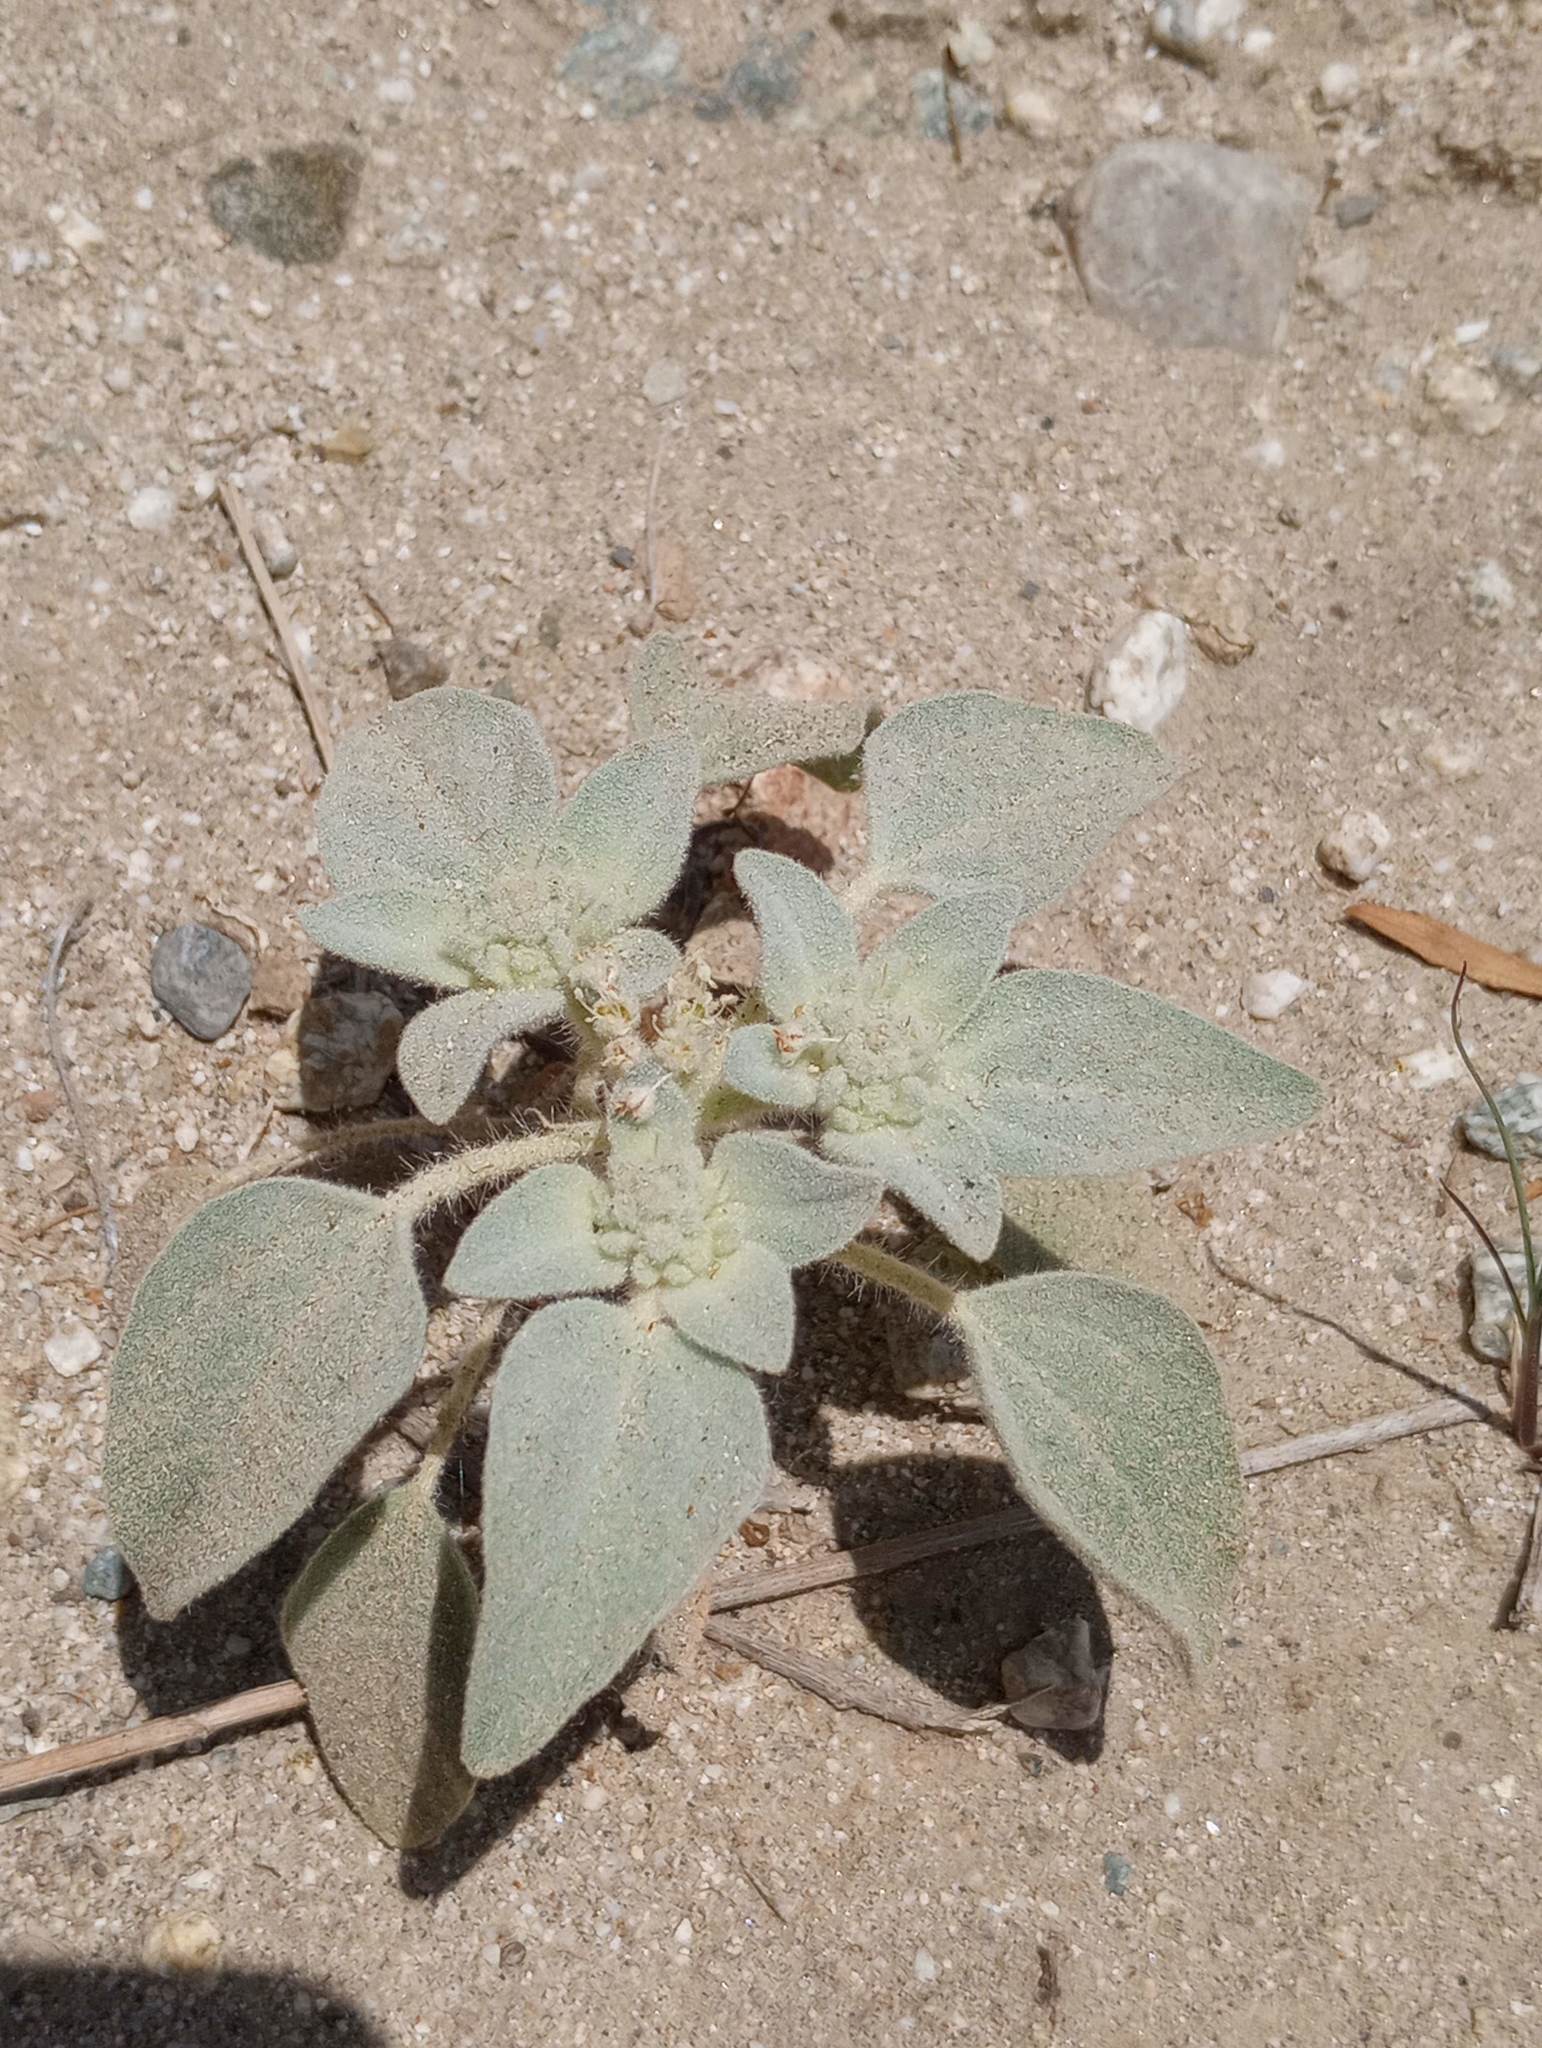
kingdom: Plantae
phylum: Tracheophyta
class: Magnoliopsida
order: Malpighiales
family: Euphorbiaceae
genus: Croton
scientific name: Croton setiger
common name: Dove weed
